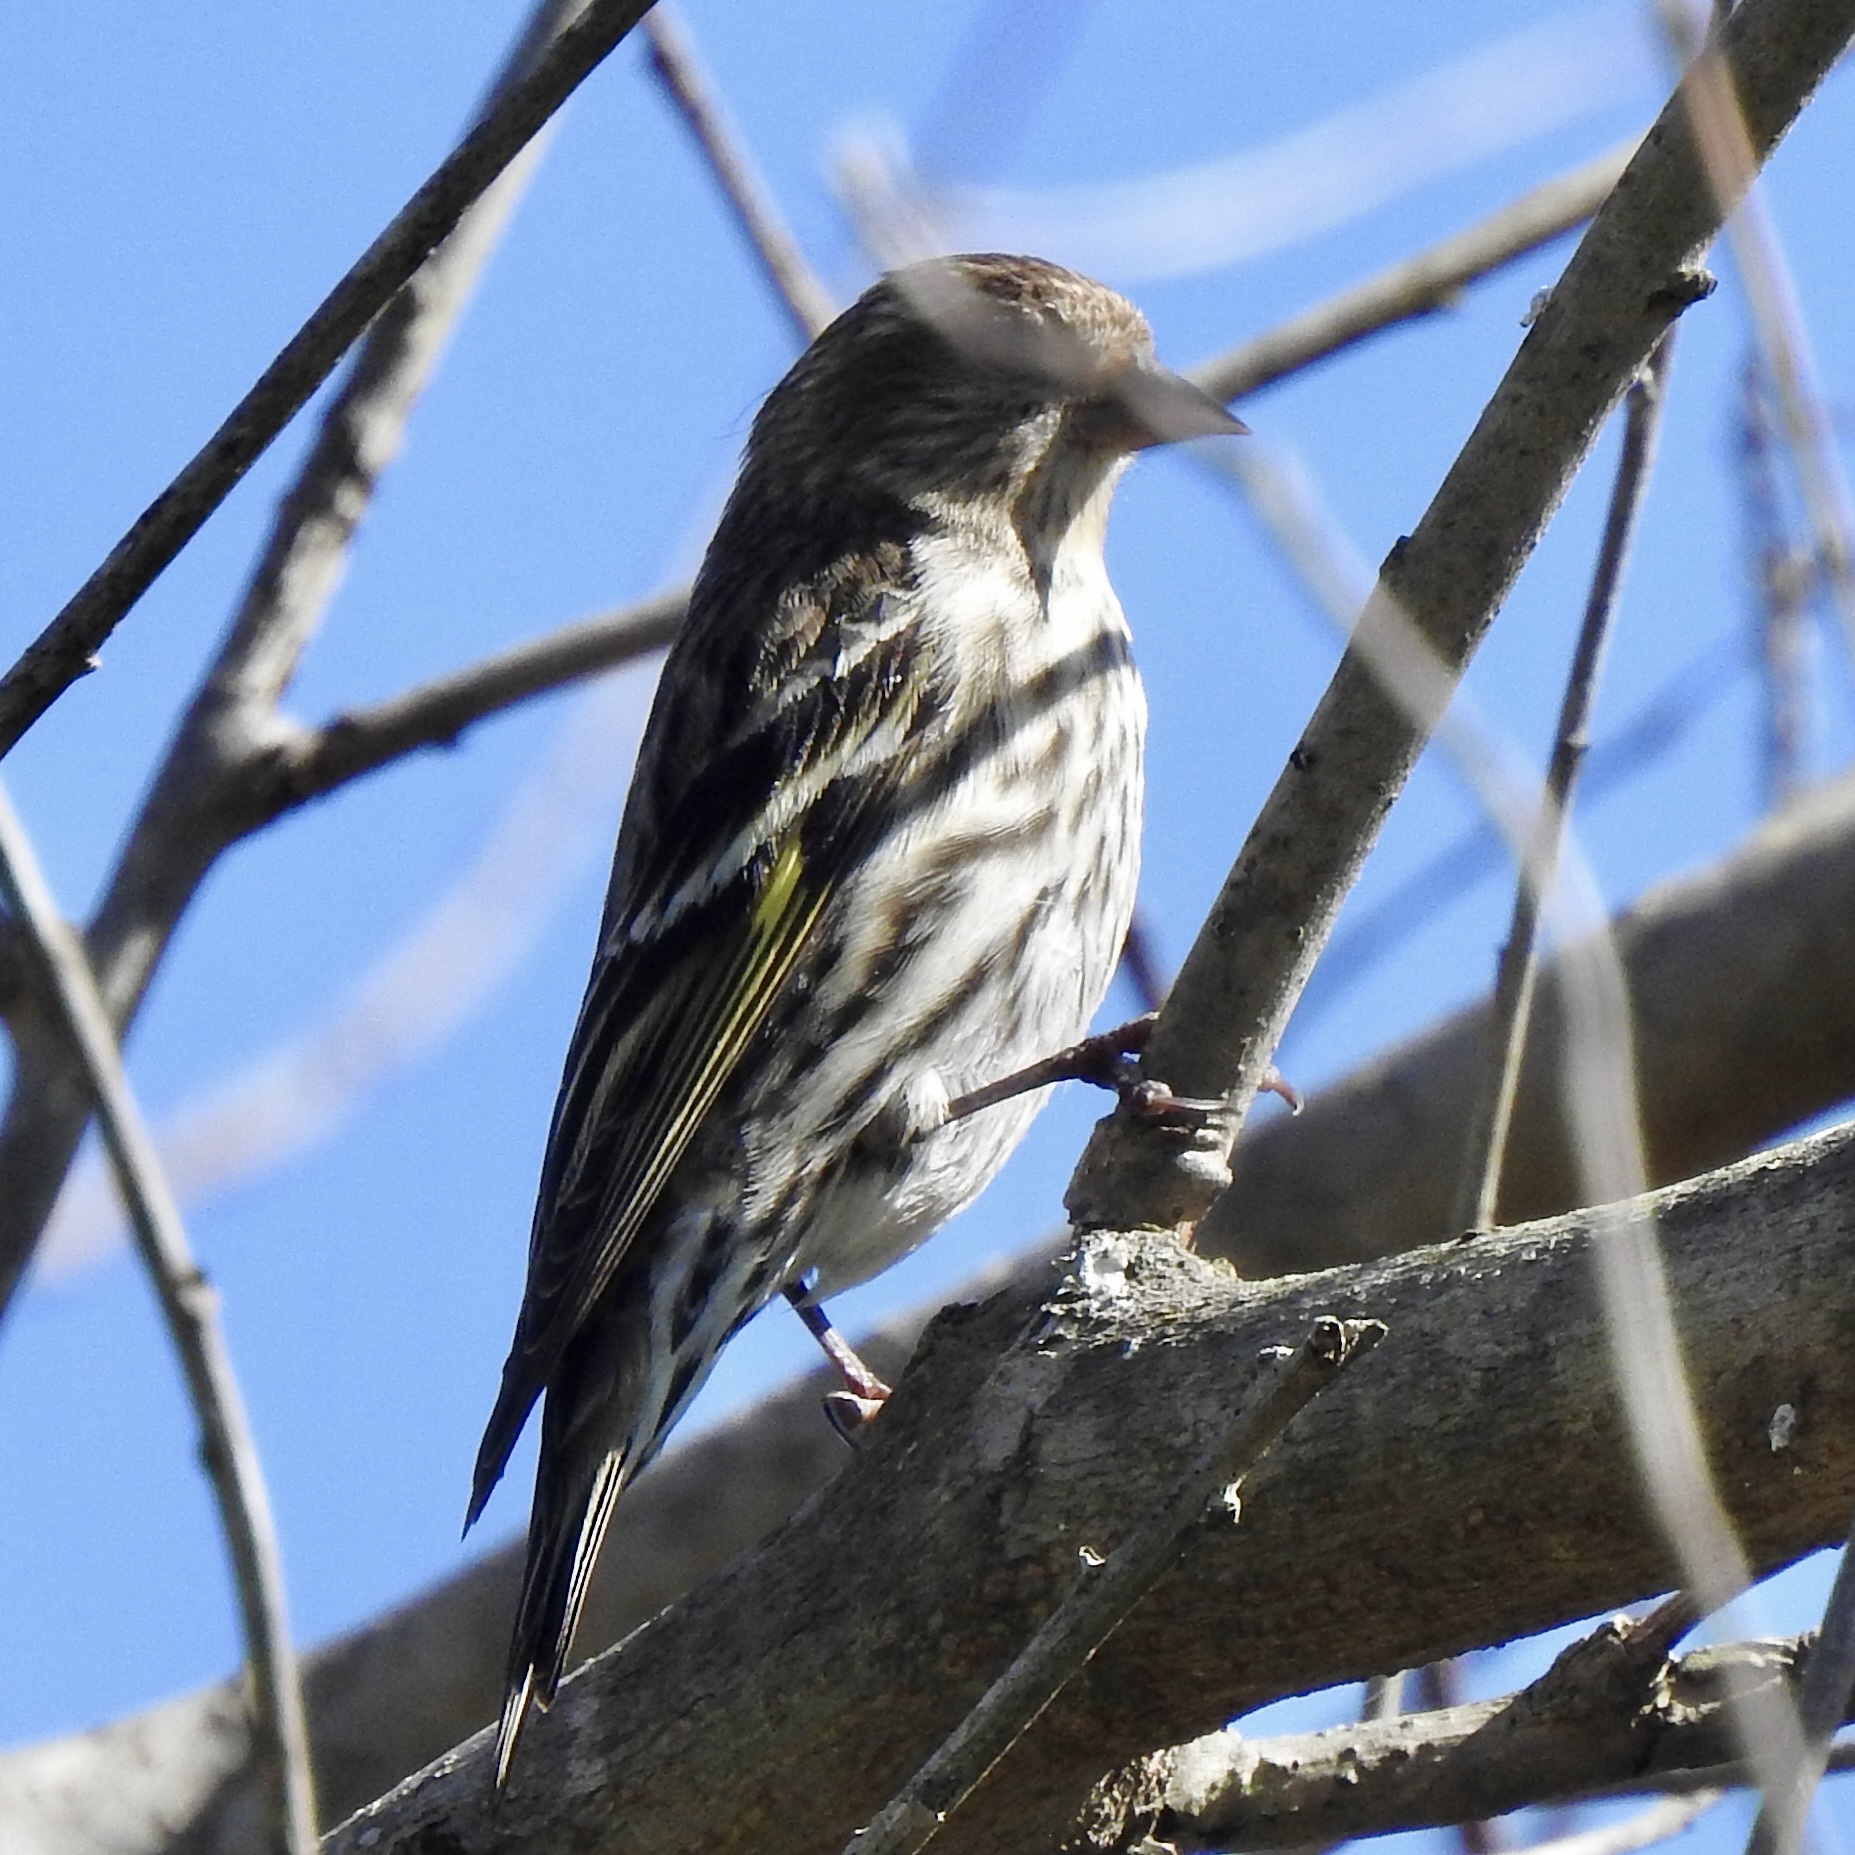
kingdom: Animalia
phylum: Chordata
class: Aves
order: Passeriformes
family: Fringillidae
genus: Spinus
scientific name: Spinus pinus
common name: Pine siskin
